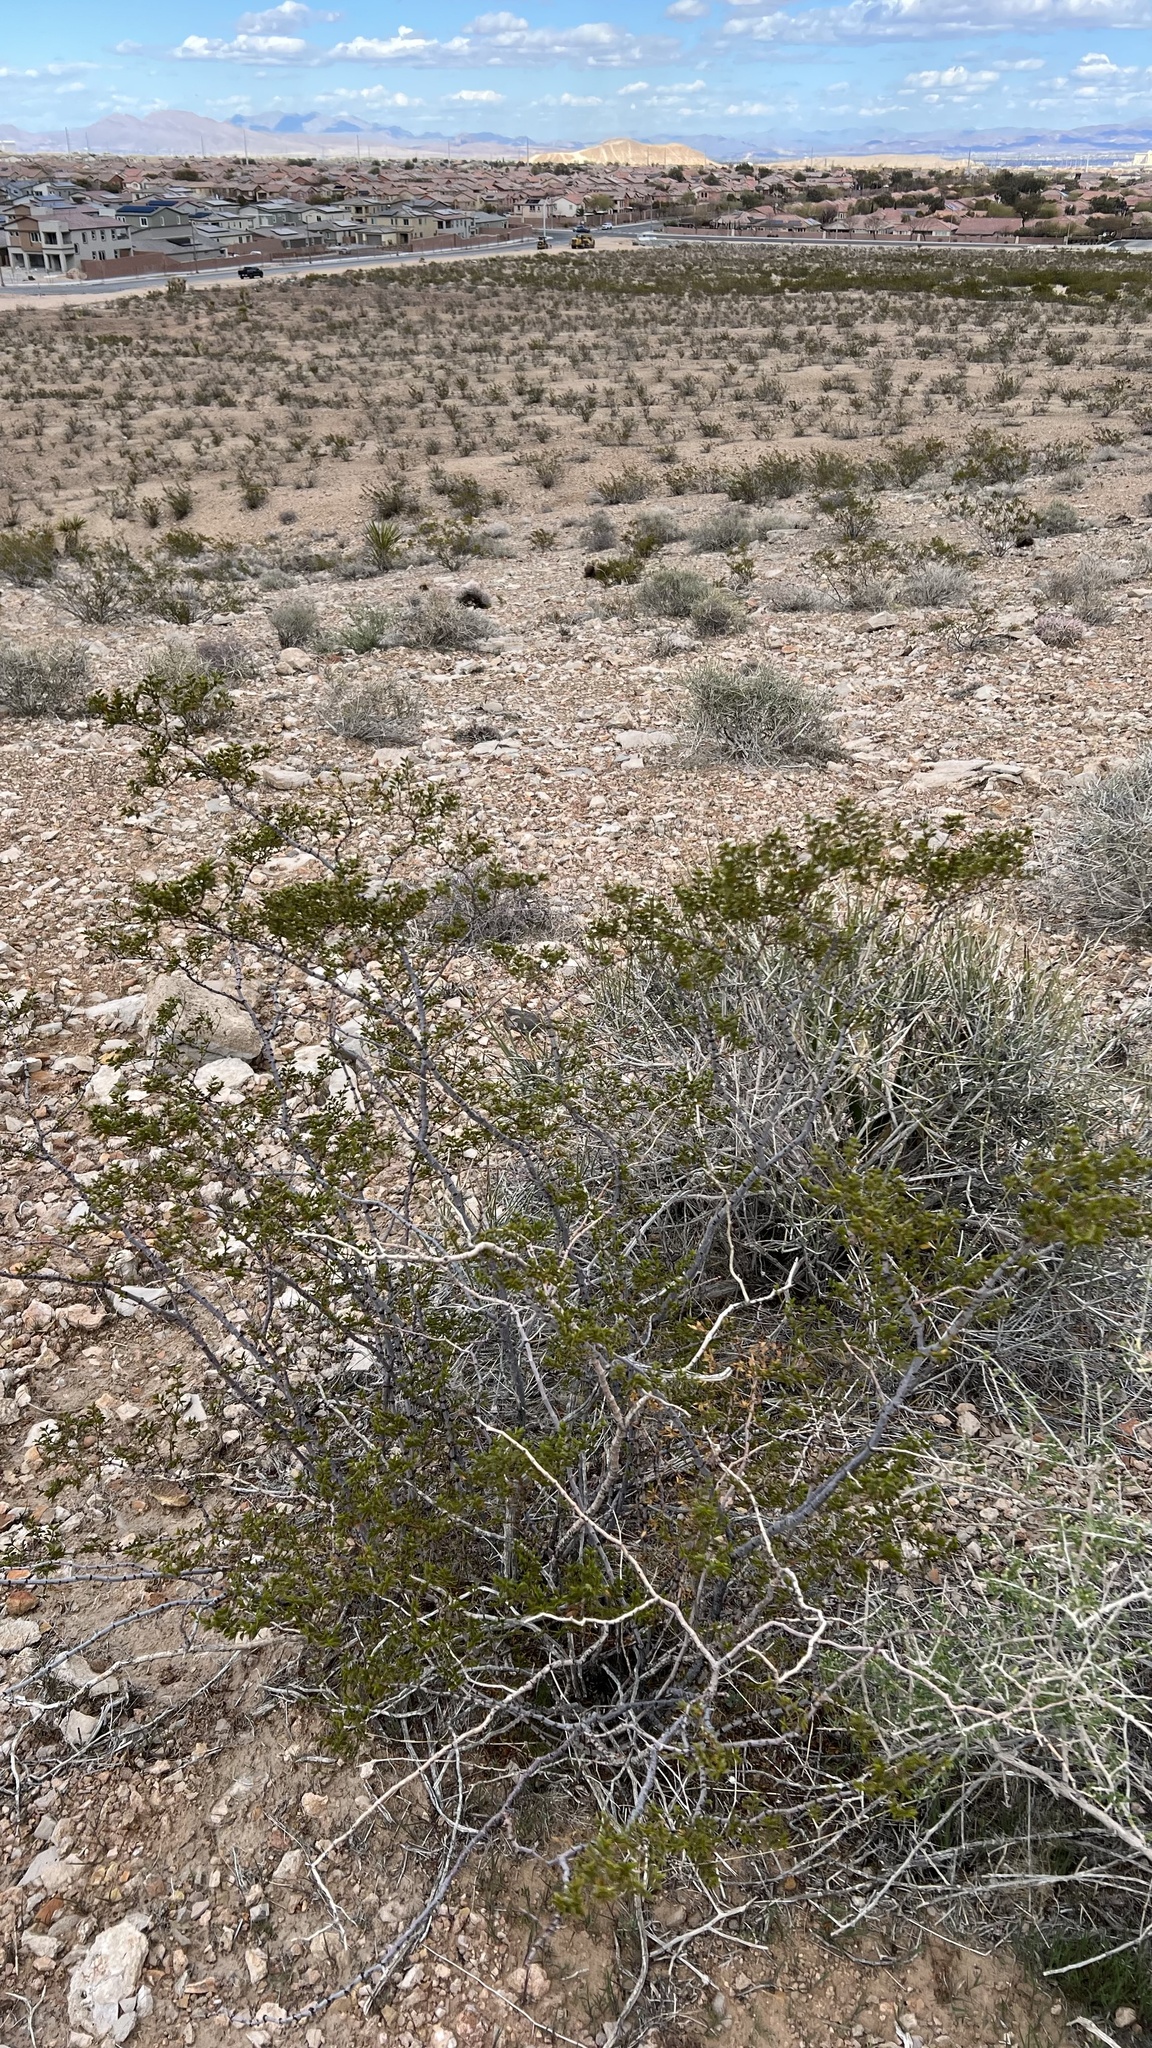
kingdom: Plantae
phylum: Tracheophyta
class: Magnoliopsida
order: Zygophyllales
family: Zygophyllaceae
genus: Larrea
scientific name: Larrea tridentata
